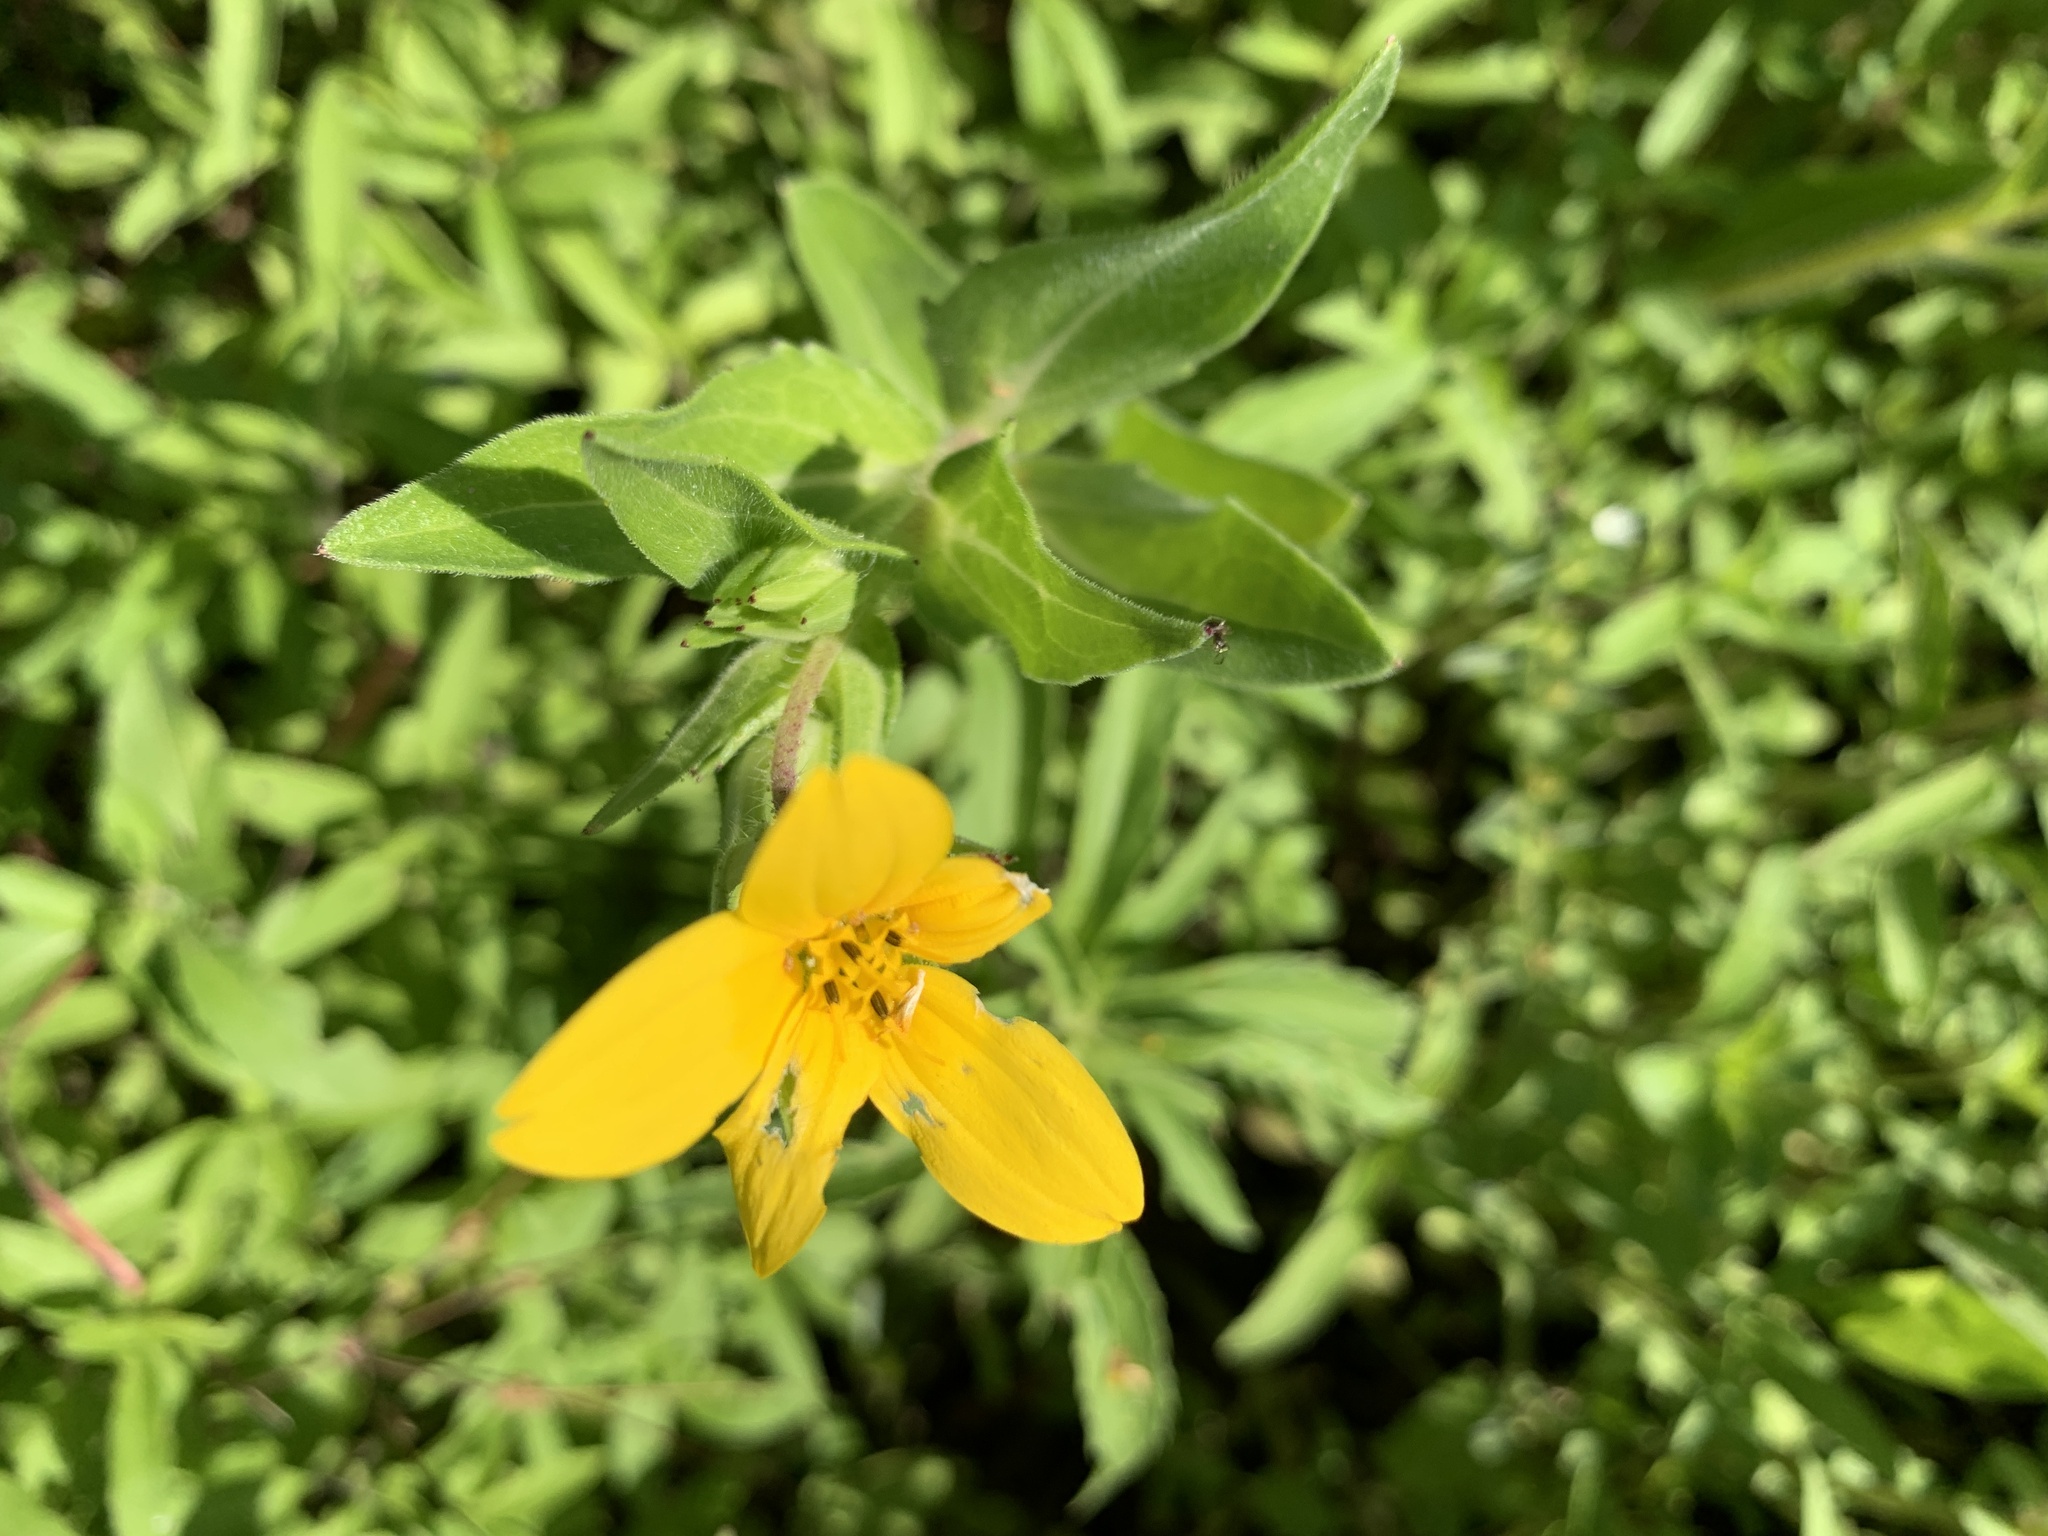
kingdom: Plantae
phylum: Tracheophyta
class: Magnoliopsida
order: Asterales
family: Asteraceae
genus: Lindheimera
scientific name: Lindheimera texana
